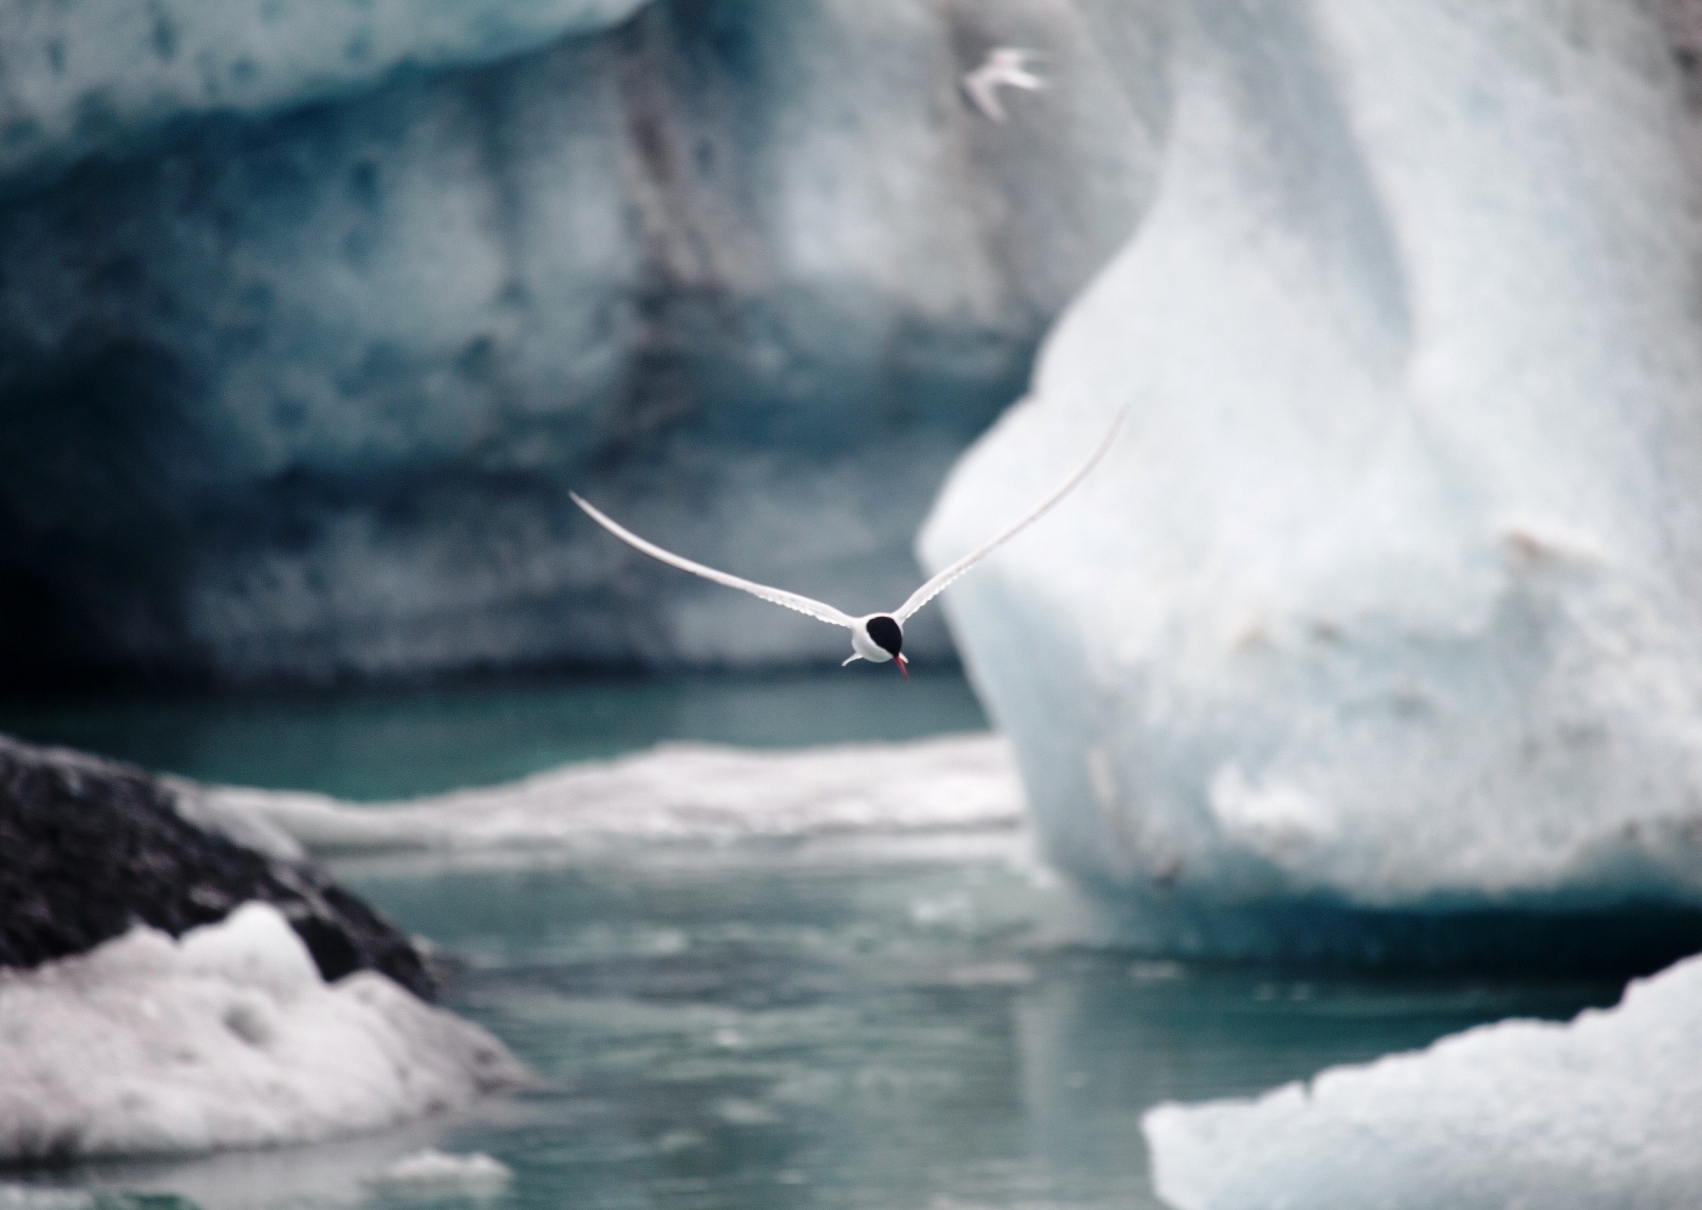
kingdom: Animalia
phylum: Chordata
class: Aves
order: Charadriiformes
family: Laridae
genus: Sterna
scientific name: Sterna paradisaea
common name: Arctic tern
